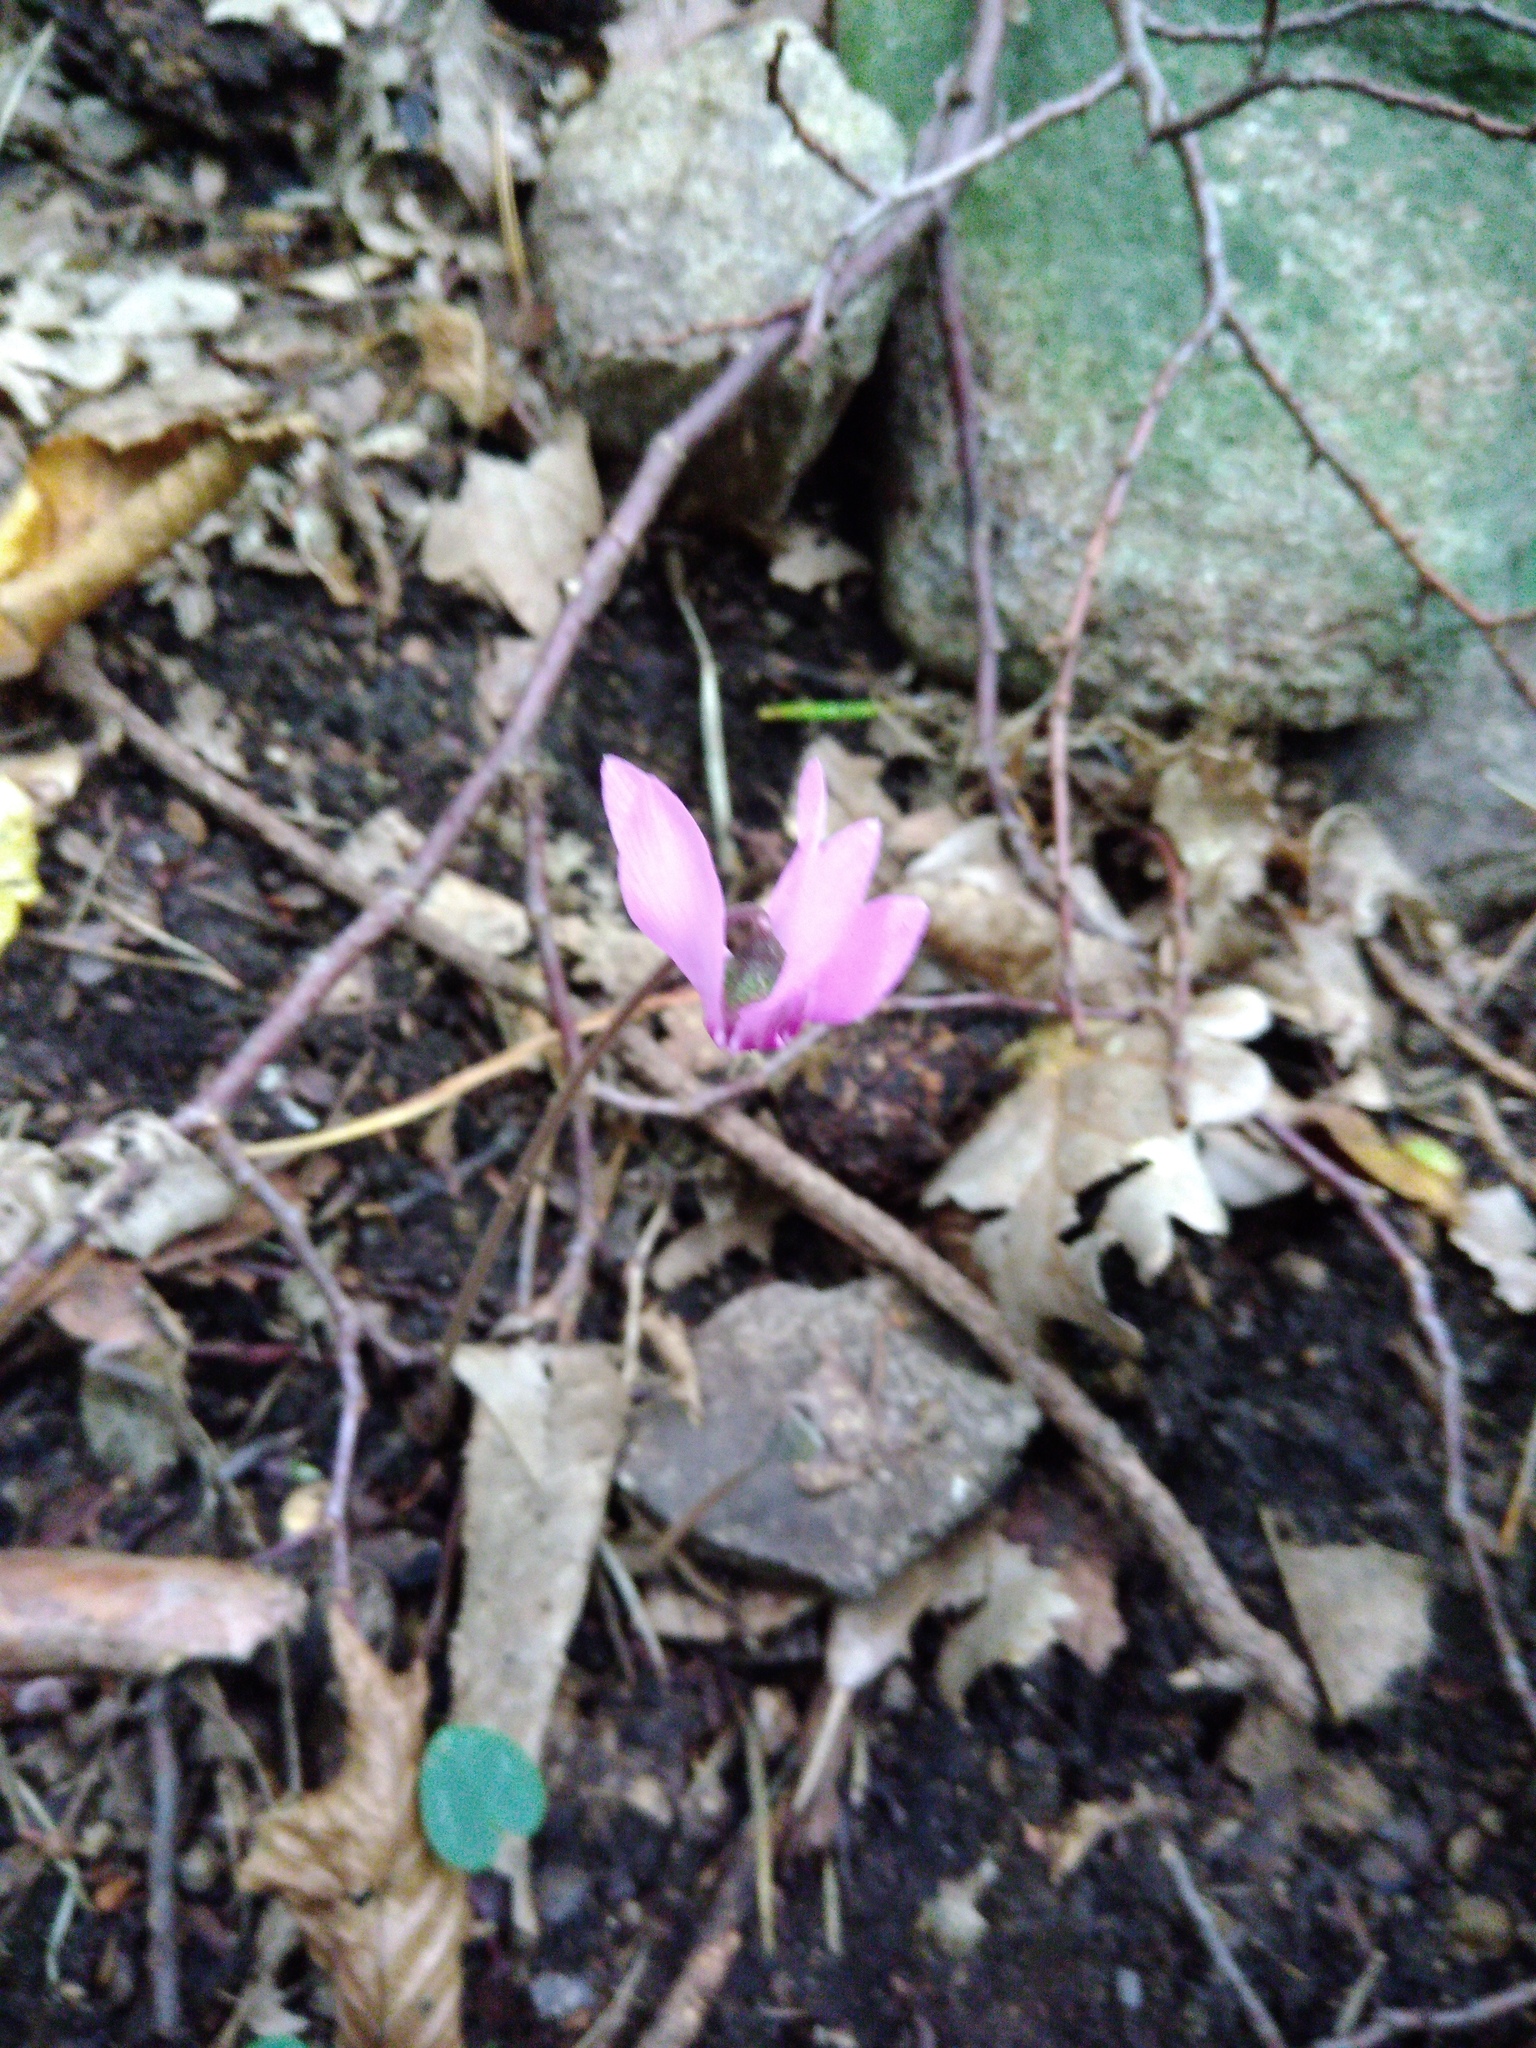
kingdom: Plantae
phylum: Tracheophyta
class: Magnoliopsida
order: Ericales
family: Primulaceae
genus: Cyclamen
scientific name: Cyclamen purpurascens
